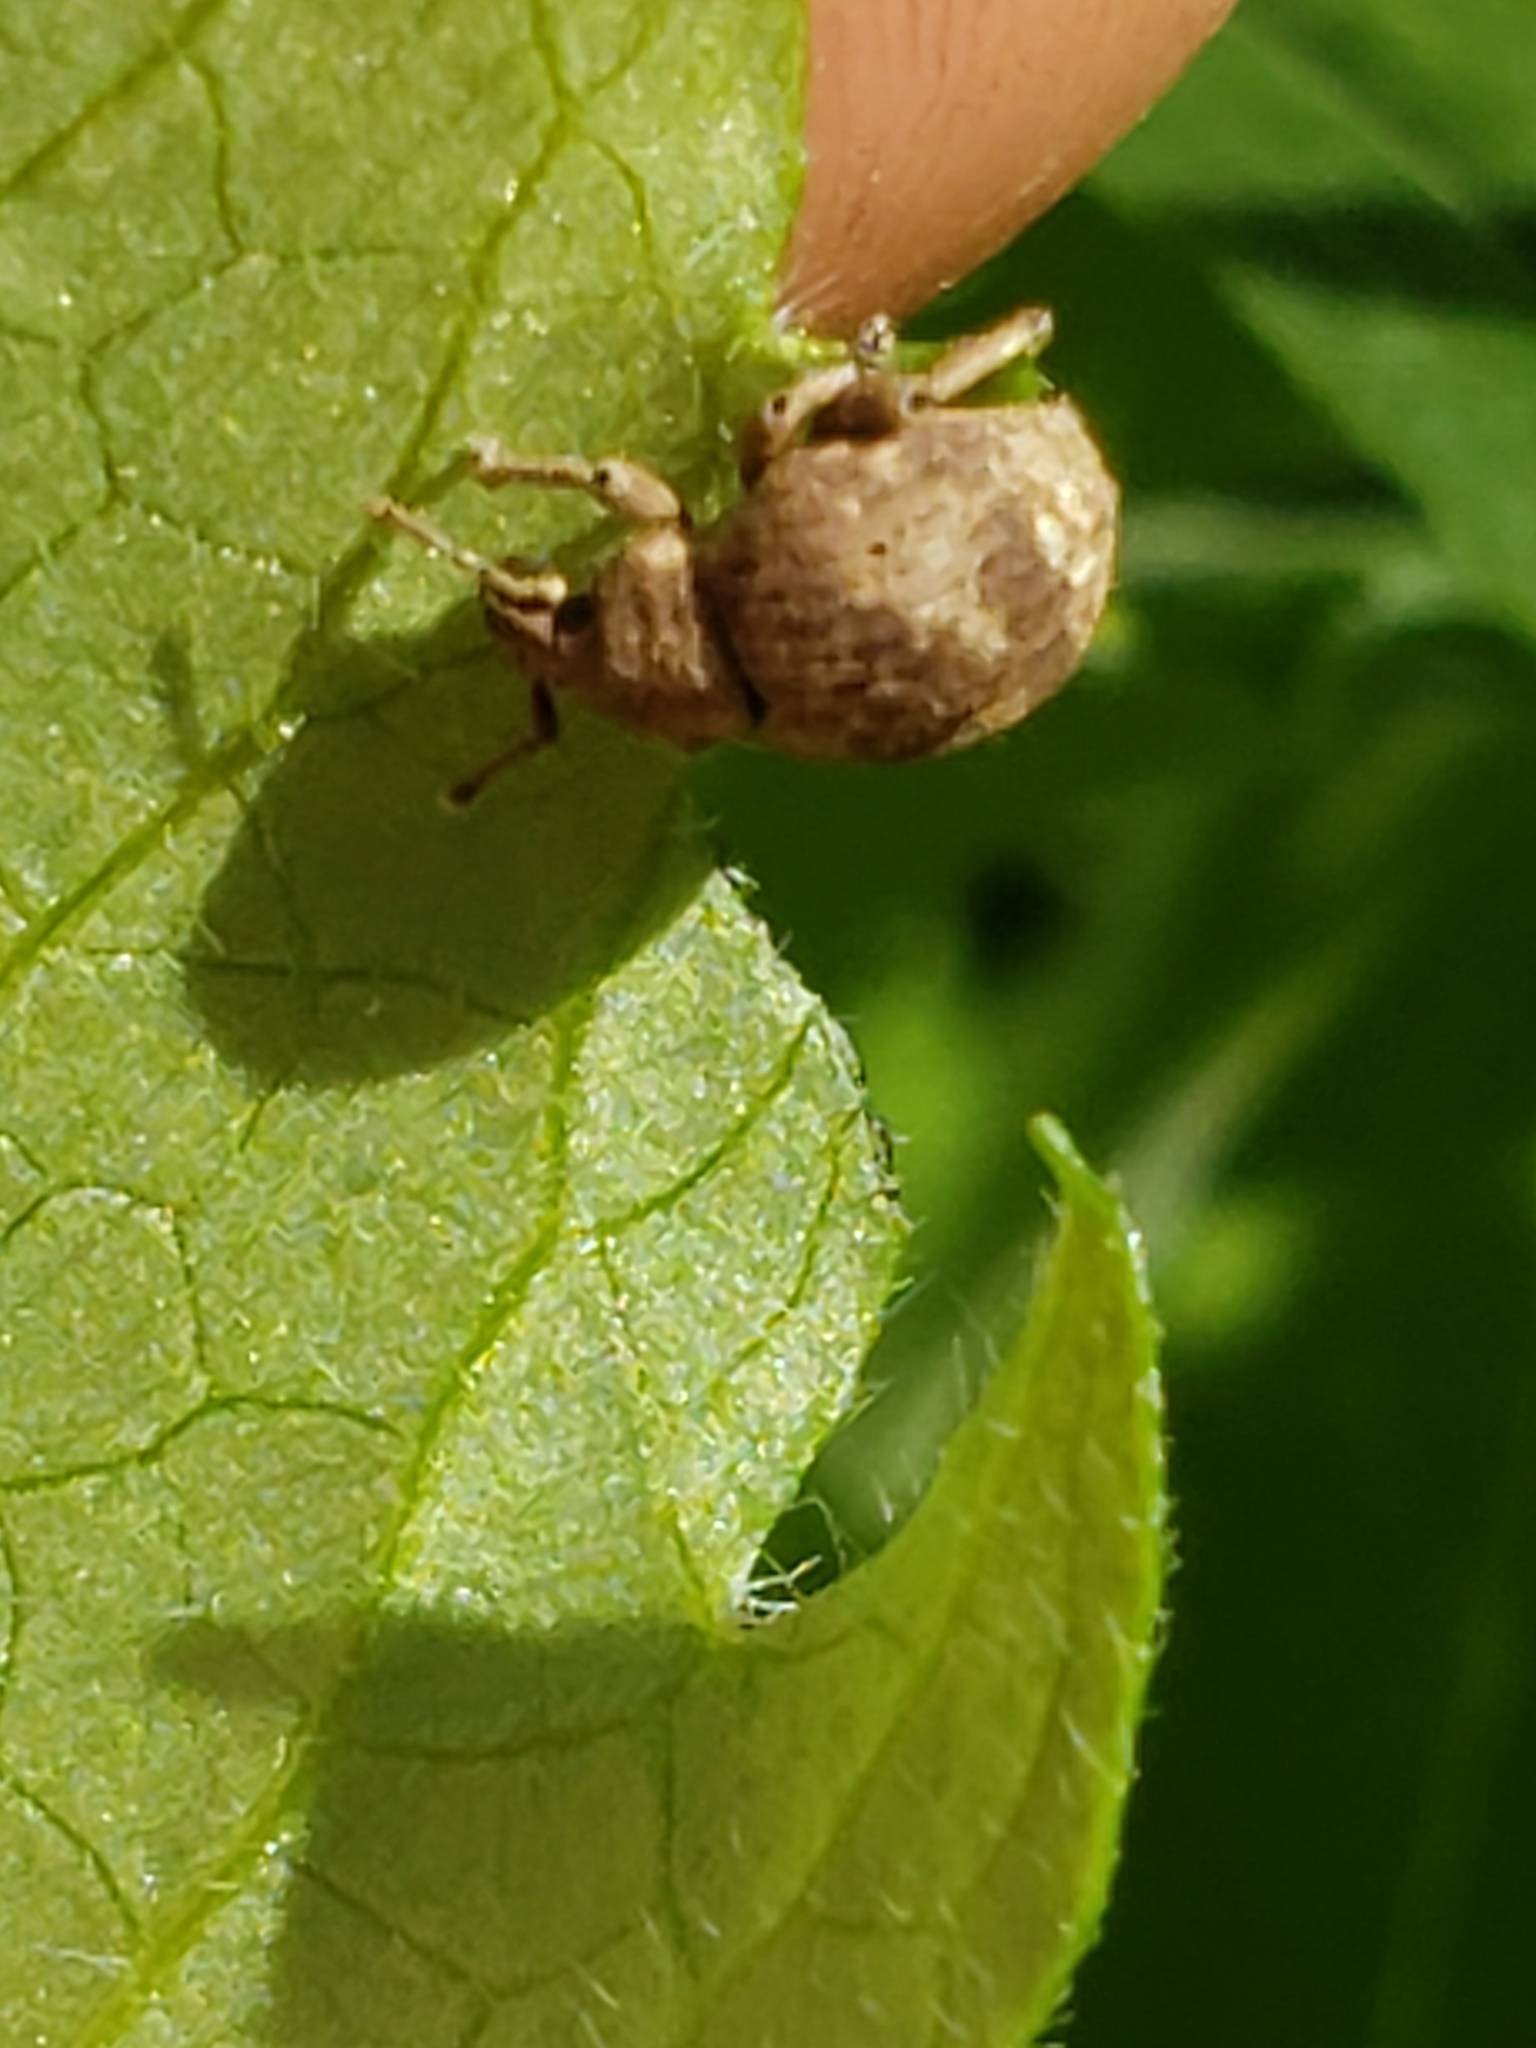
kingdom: Animalia
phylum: Arthropoda
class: Insecta
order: Coleoptera
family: Curculionidae
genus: Pseudocneorhinus
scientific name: Pseudocneorhinus bifasciatus
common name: Two-banded japanese weevil
